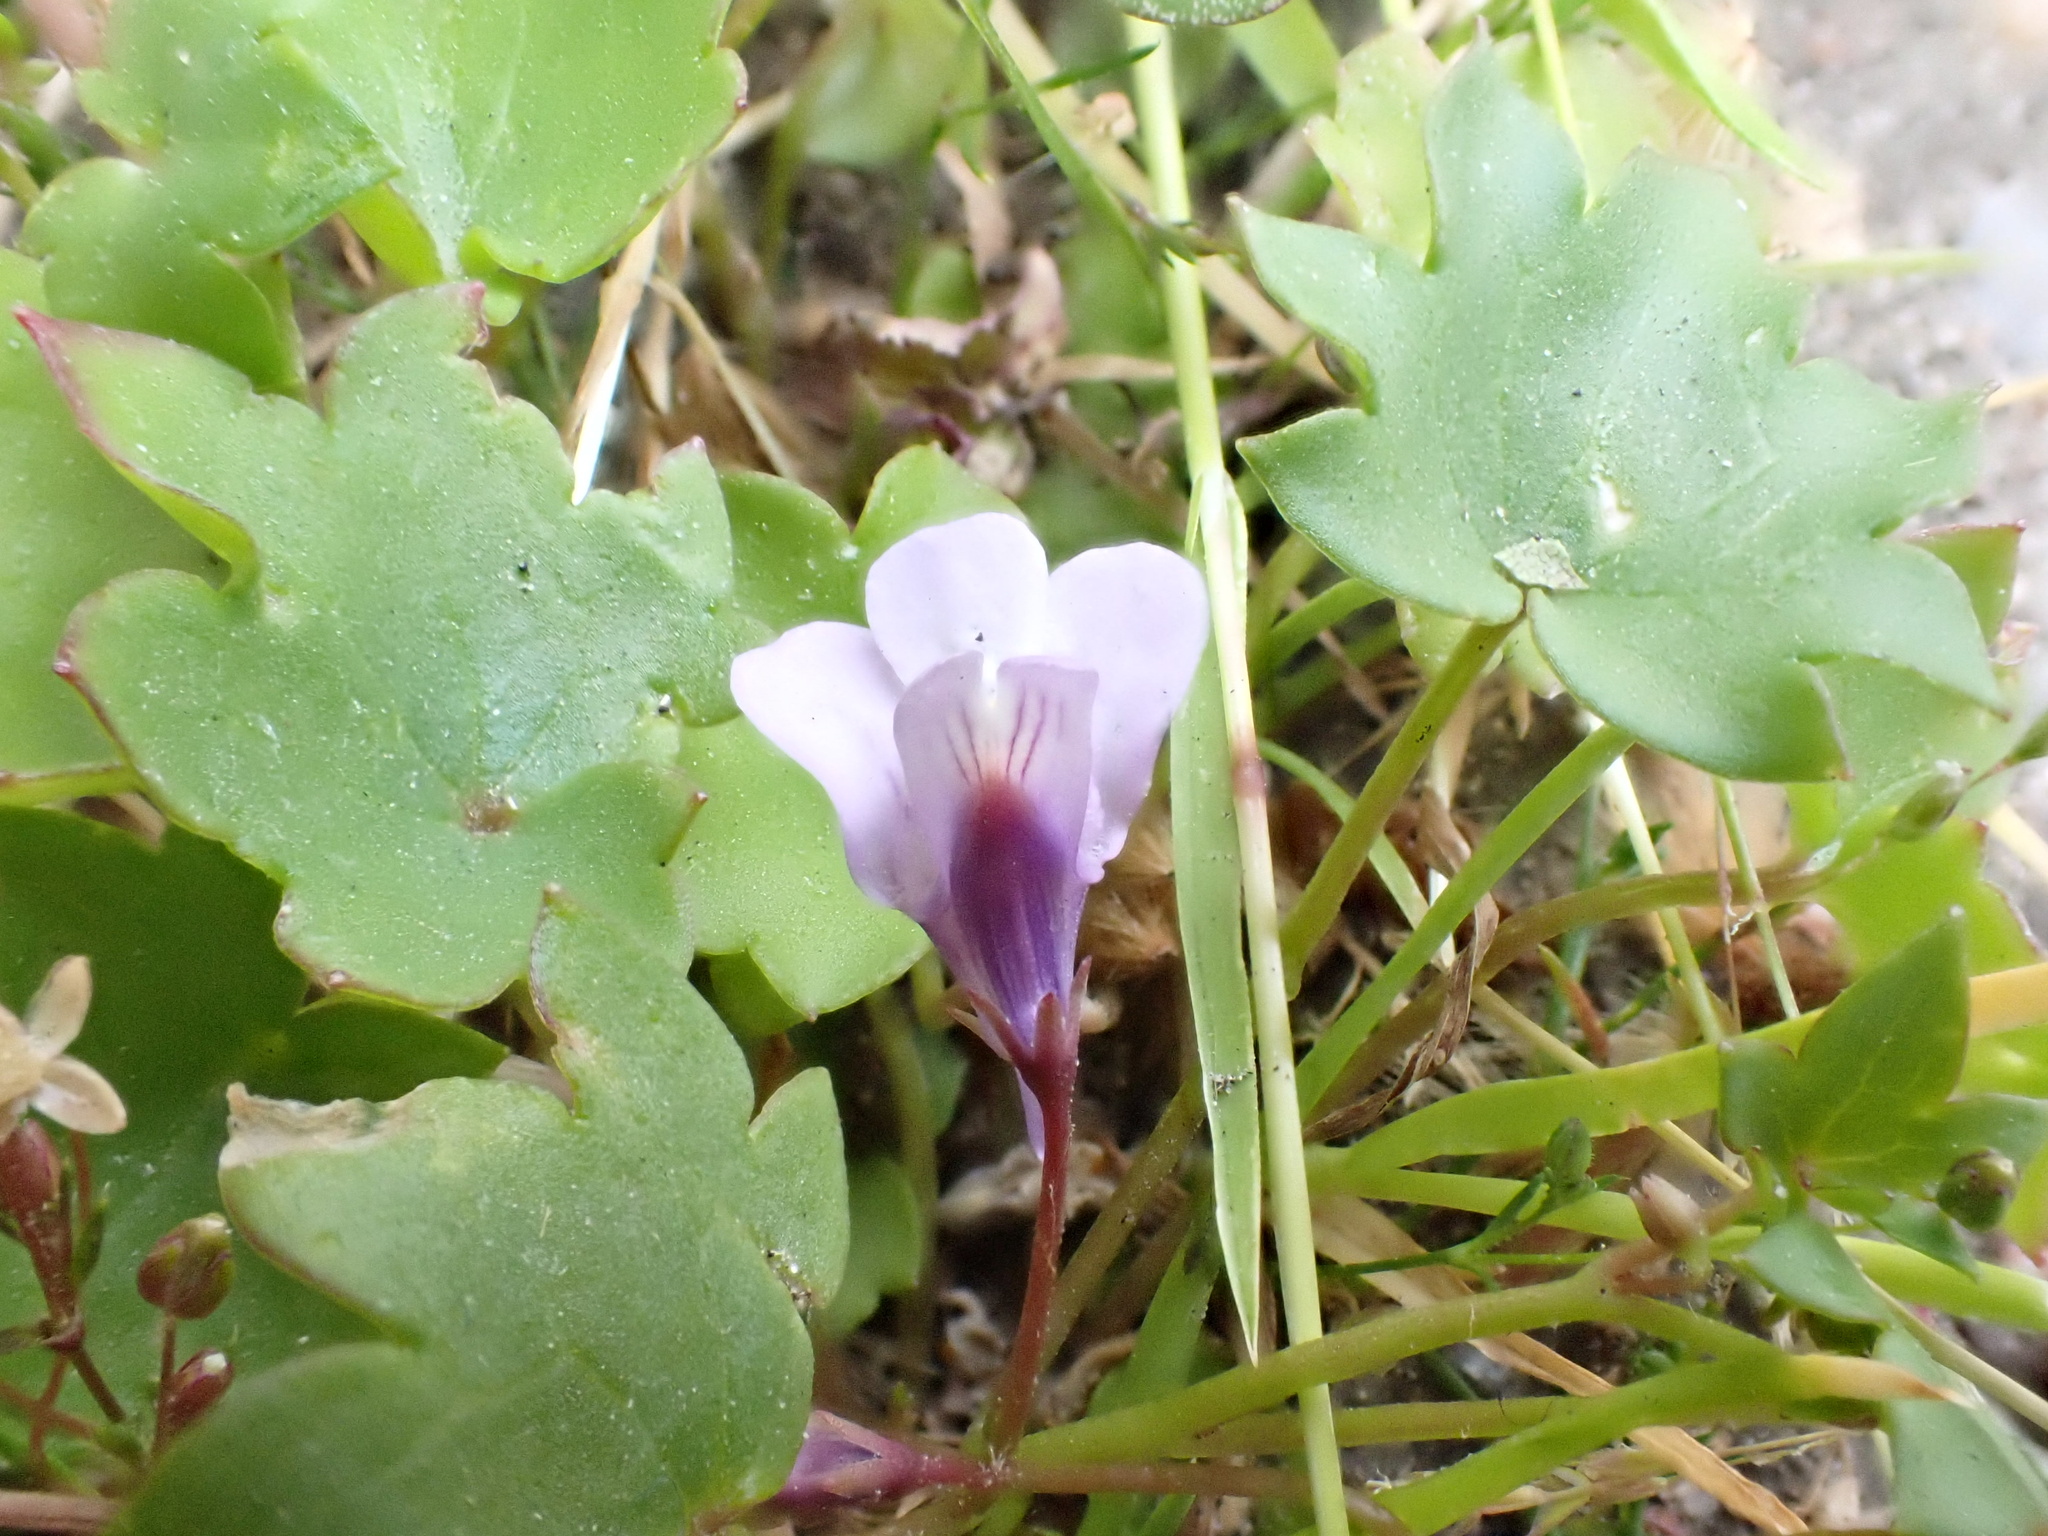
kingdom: Plantae
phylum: Tracheophyta
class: Magnoliopsida
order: Lamiales
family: Plantaginaceae
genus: Cymbalaria
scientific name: Cymbalaria muralis
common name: Ivy-leaved toadflax
